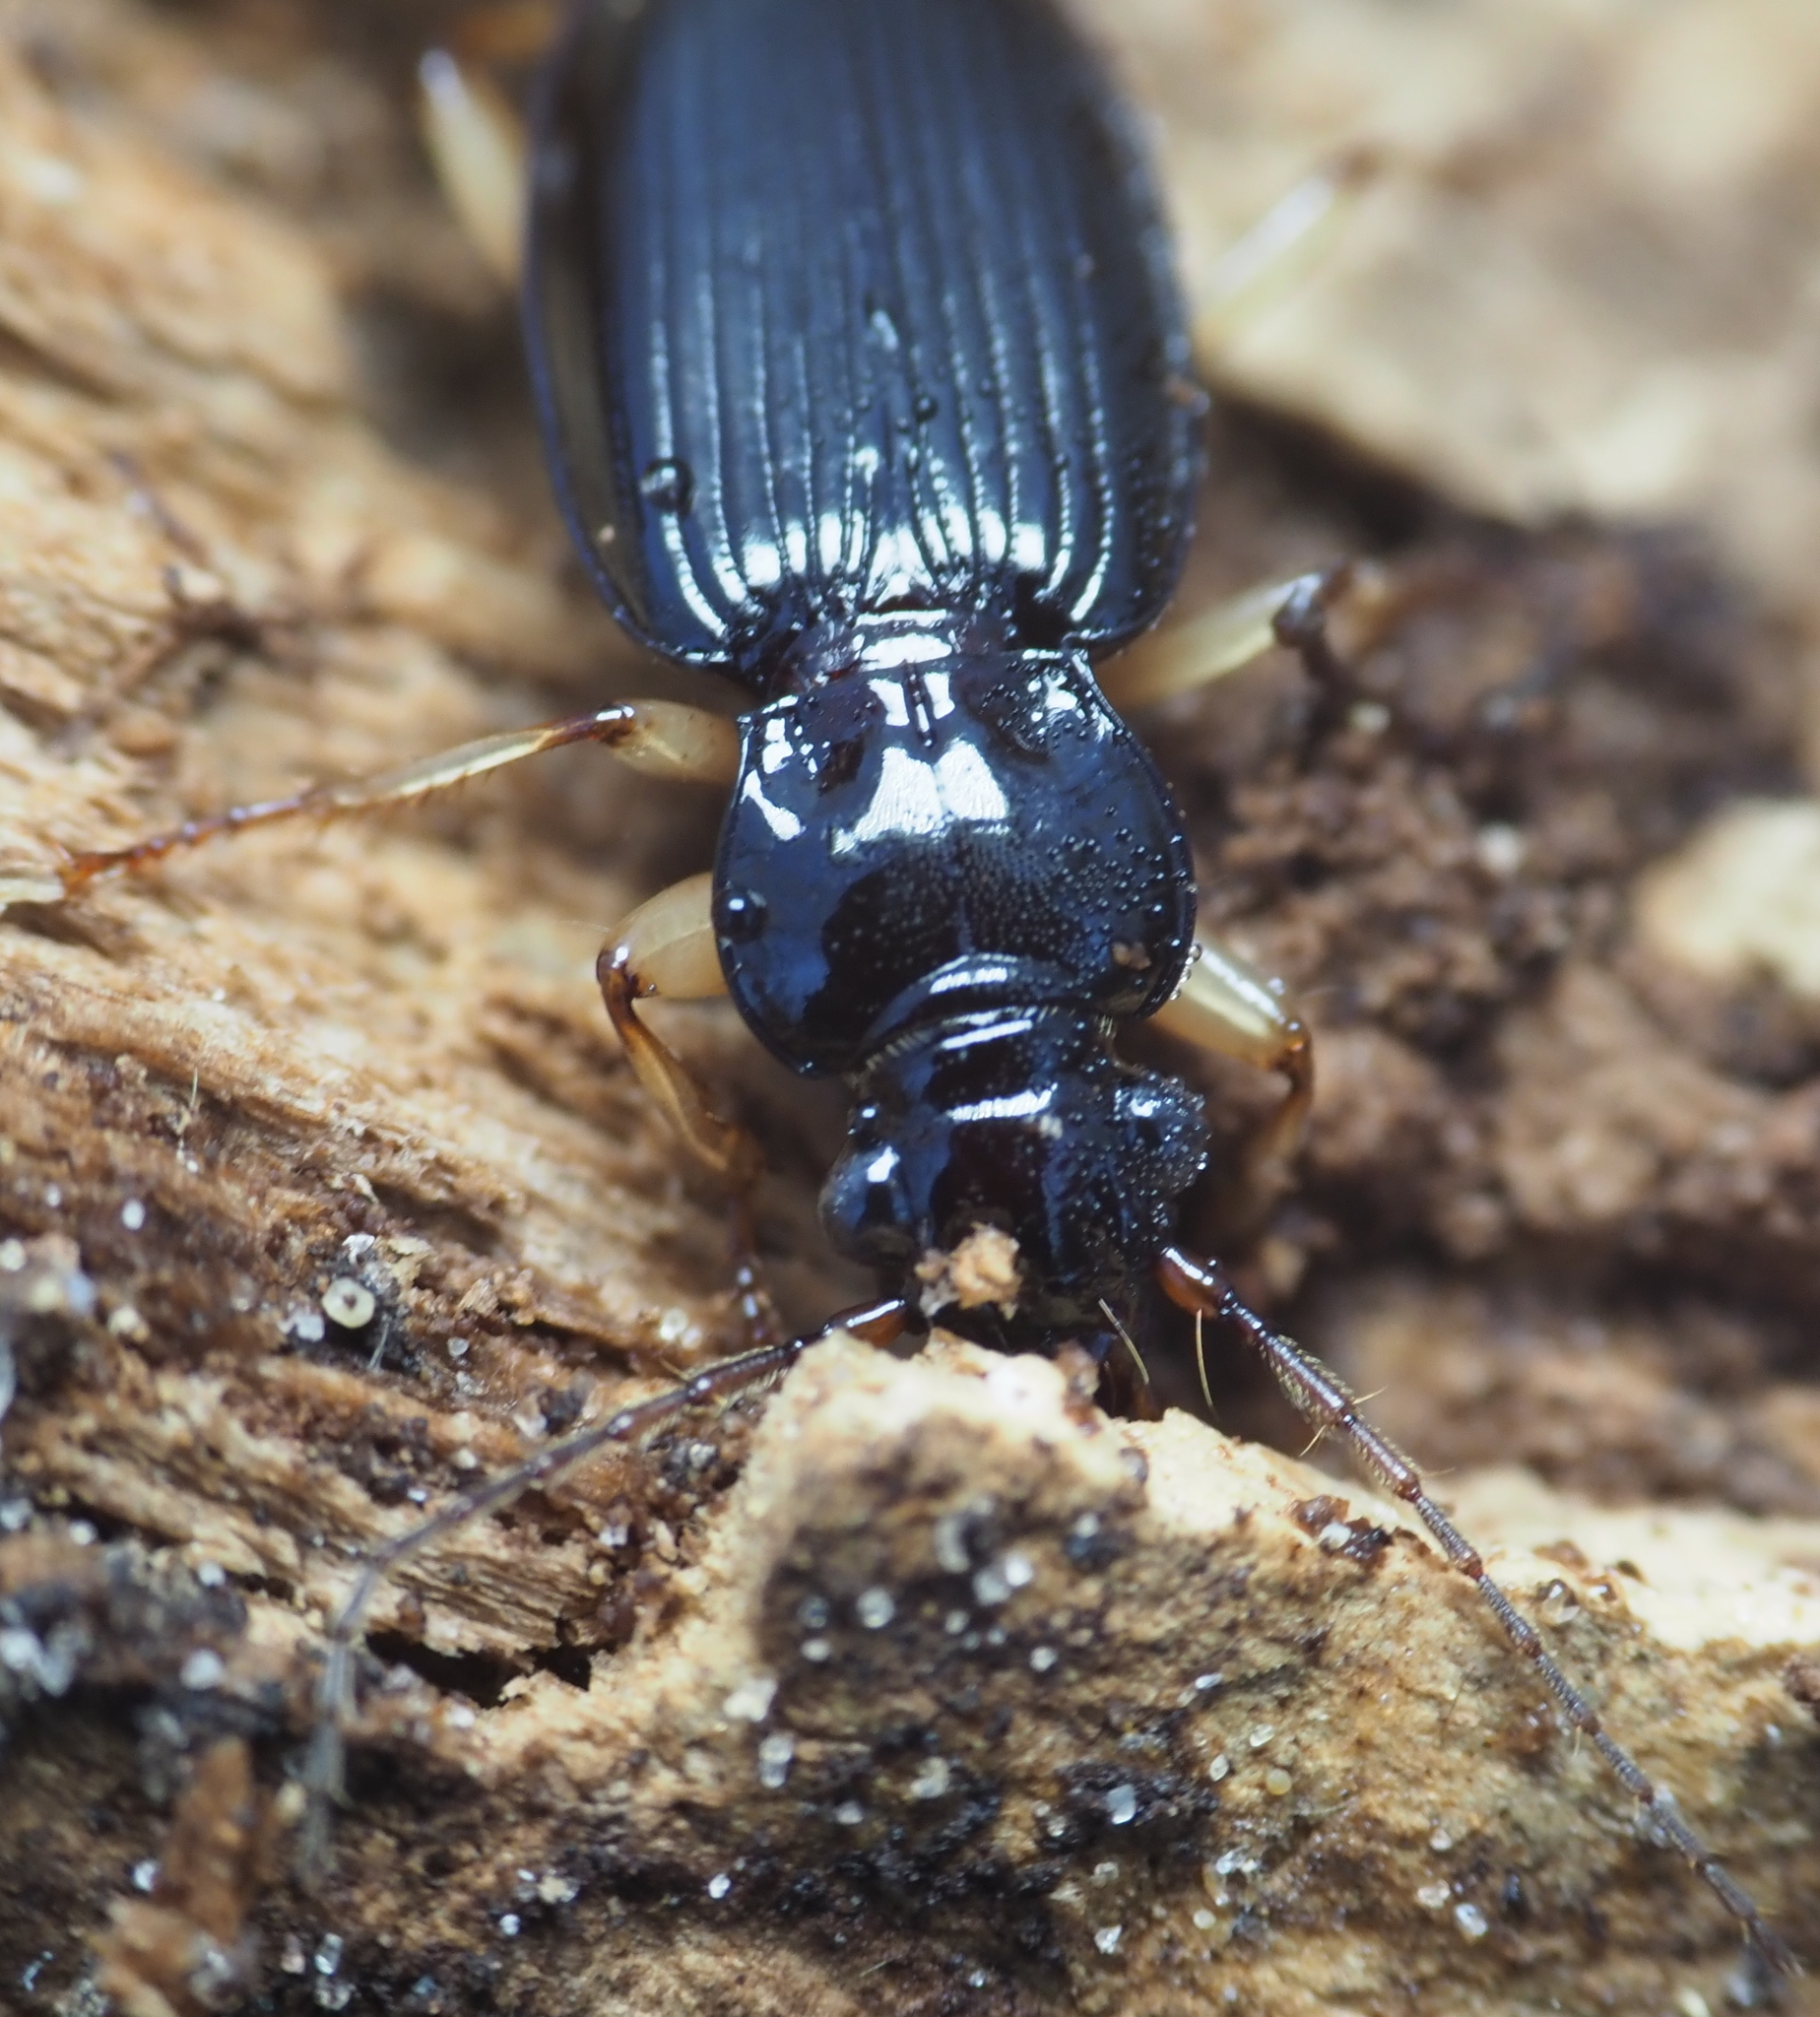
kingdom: Animalia
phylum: Arthropoda
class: Insecta
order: Coleoptera
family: Carabidae
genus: Patrobus
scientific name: Patrobus longicornis
